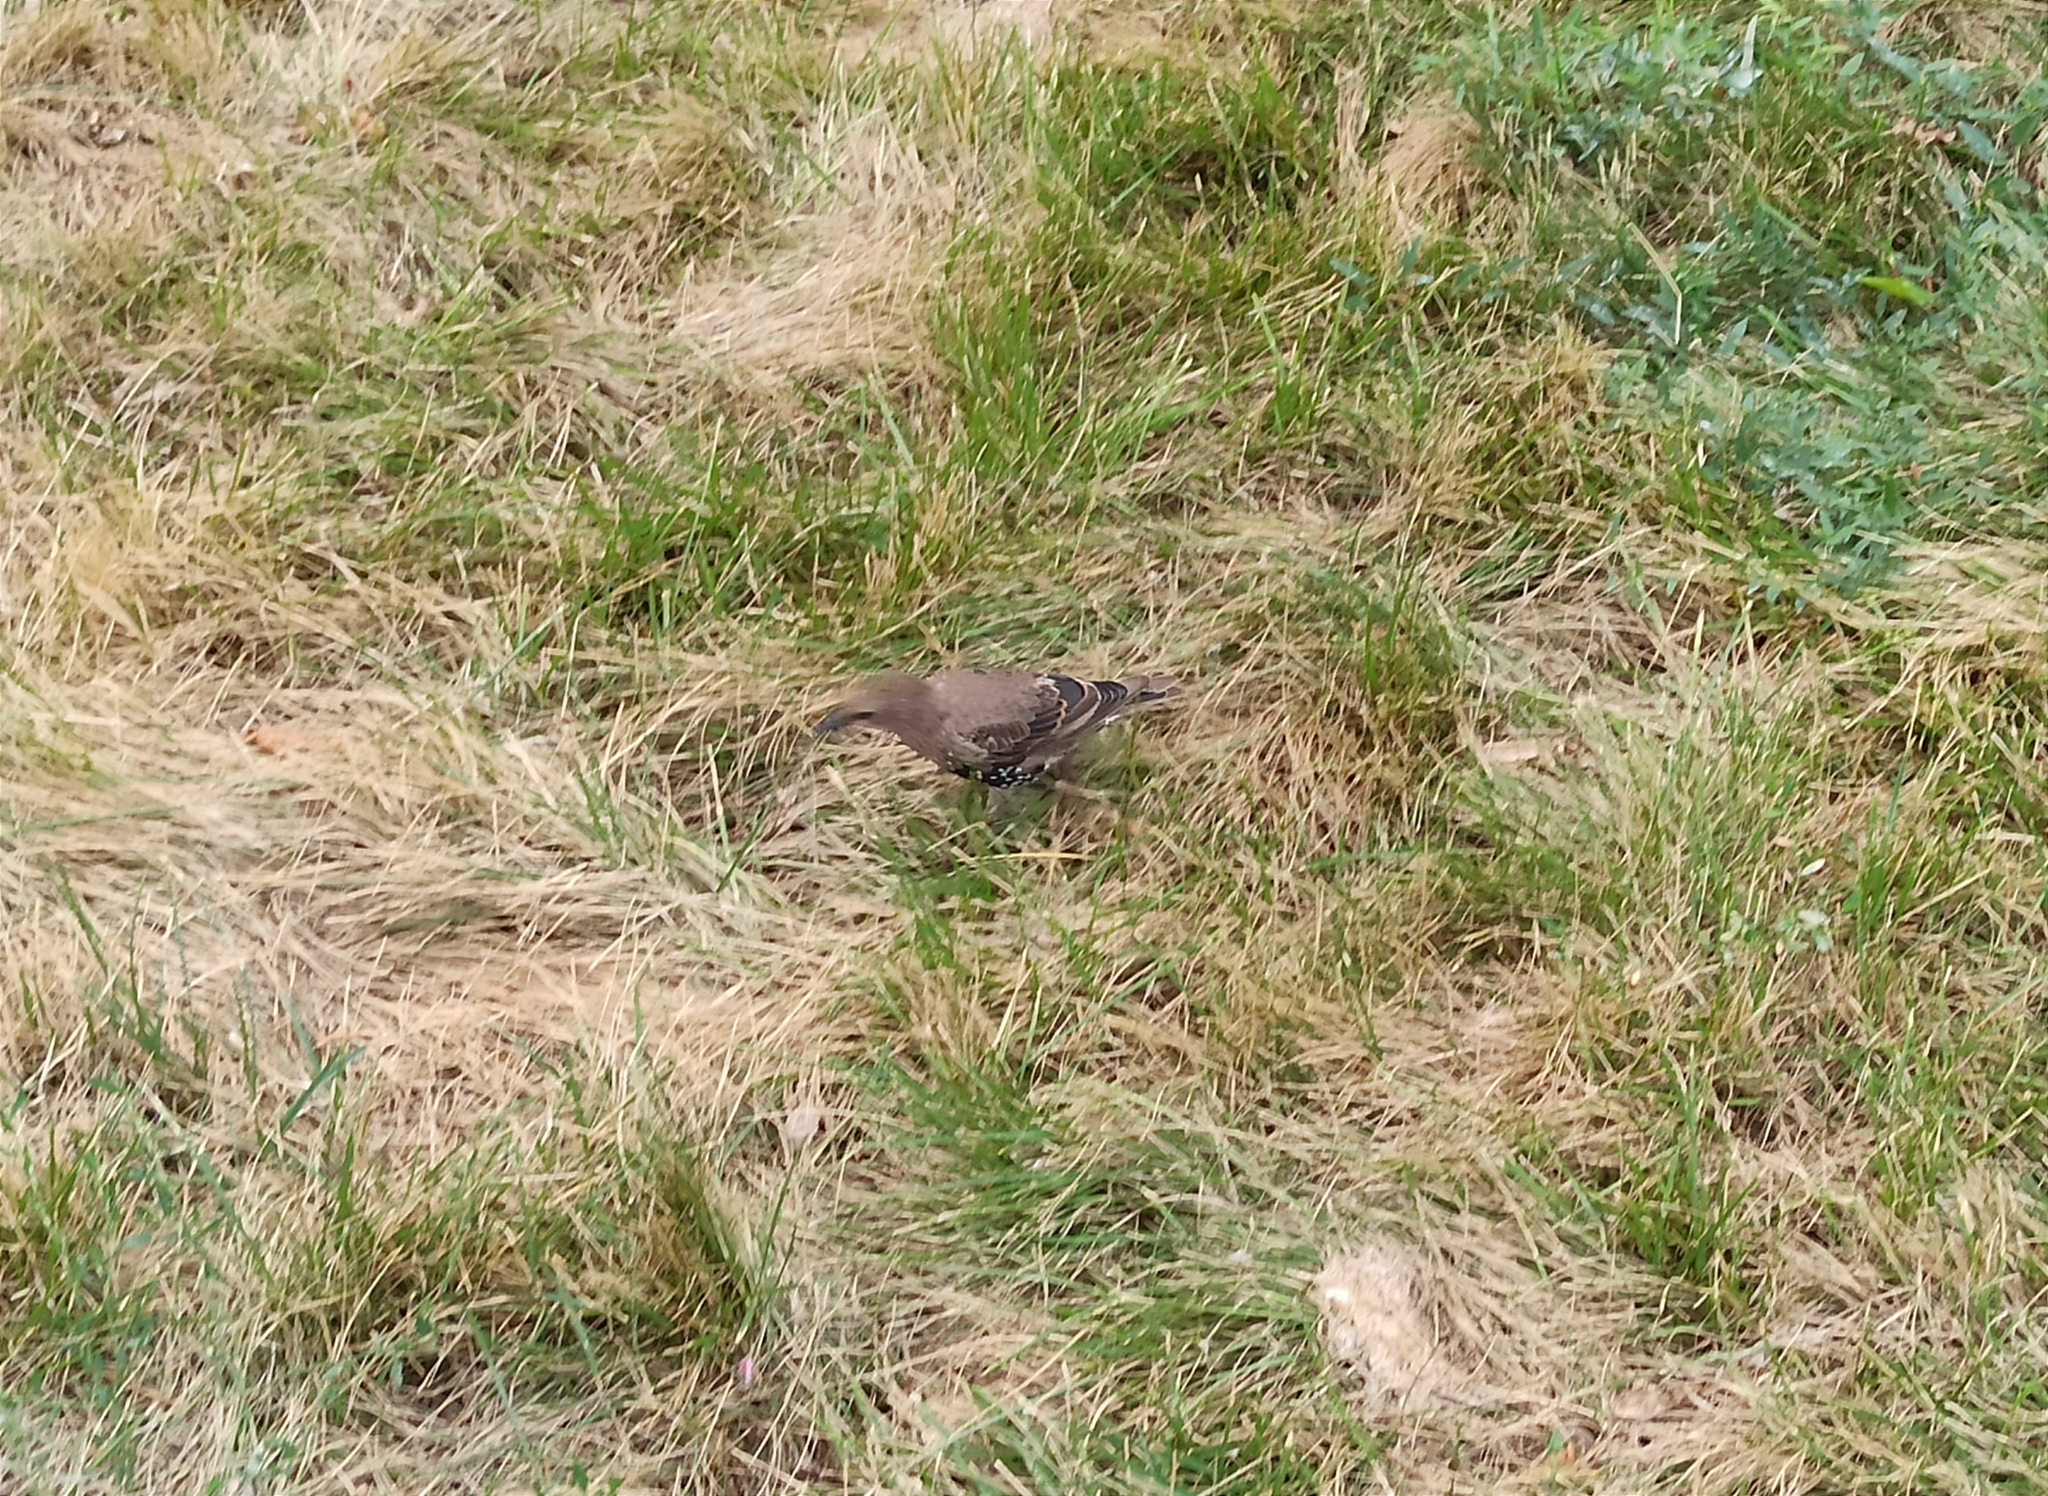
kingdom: Animalia
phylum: Chordata
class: Aves
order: Passeriformes
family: Sturnidae
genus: Sturnus
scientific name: Sturnus vulgaris
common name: Common starling
